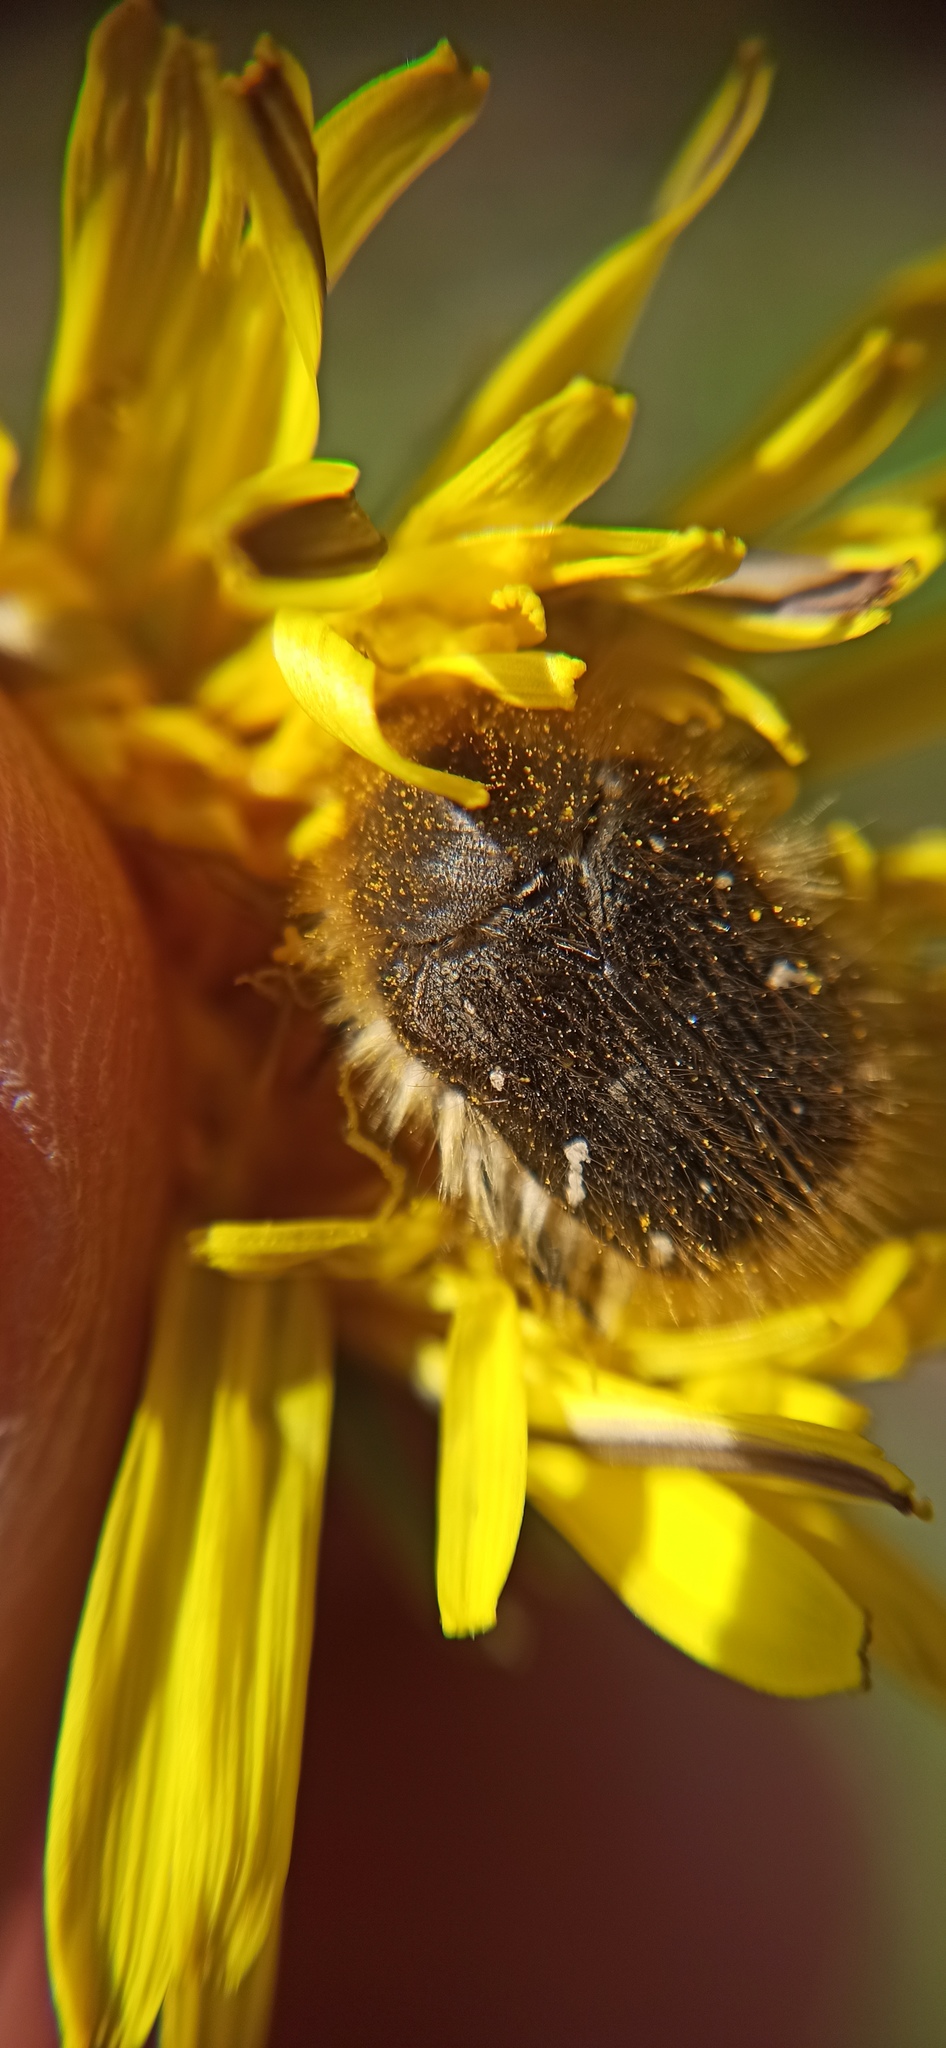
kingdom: Animalia
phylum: Arthropoda
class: Insecta
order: Coleoptera
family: Scarabaeidae
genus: Tropinota
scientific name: Tropinota hirta
